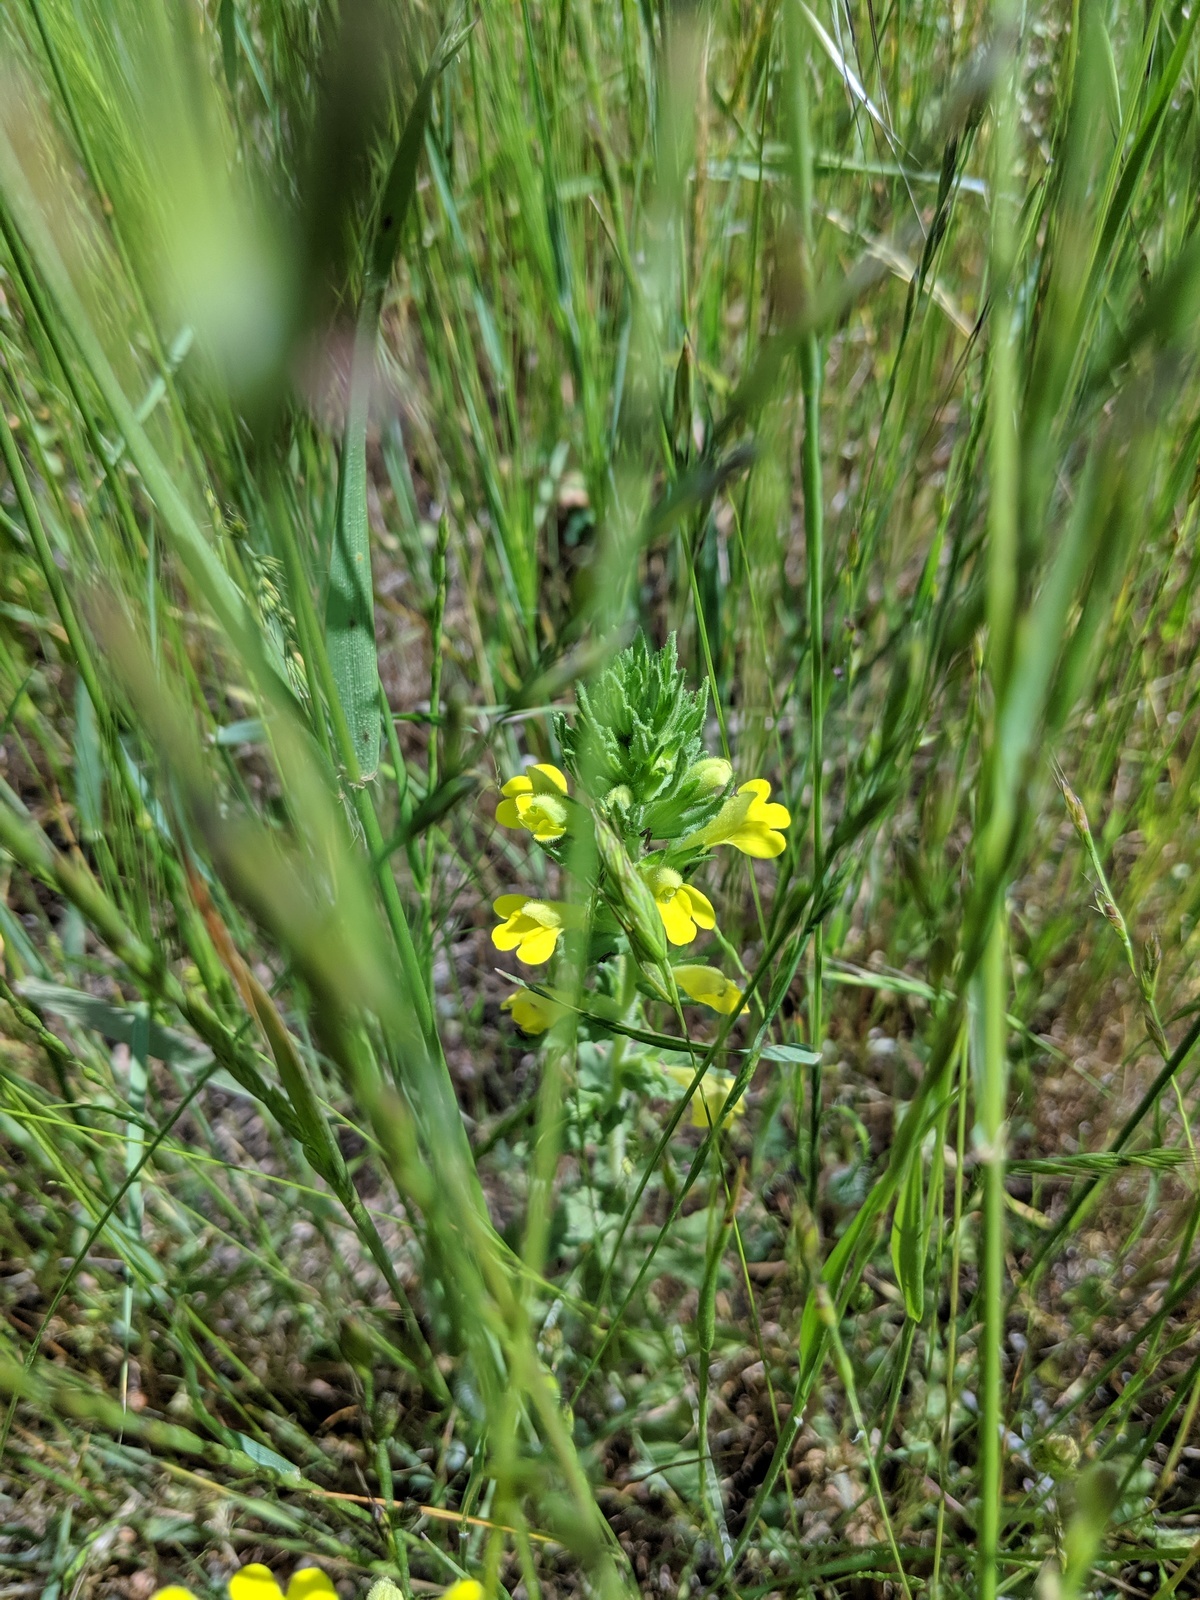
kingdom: Plantae
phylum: Tracheophyta
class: Magnoliopsida
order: Lamiales
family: Orobanchaceae
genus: Bellardia
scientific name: Bellardia viscosa
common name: Sticky parentucellia
